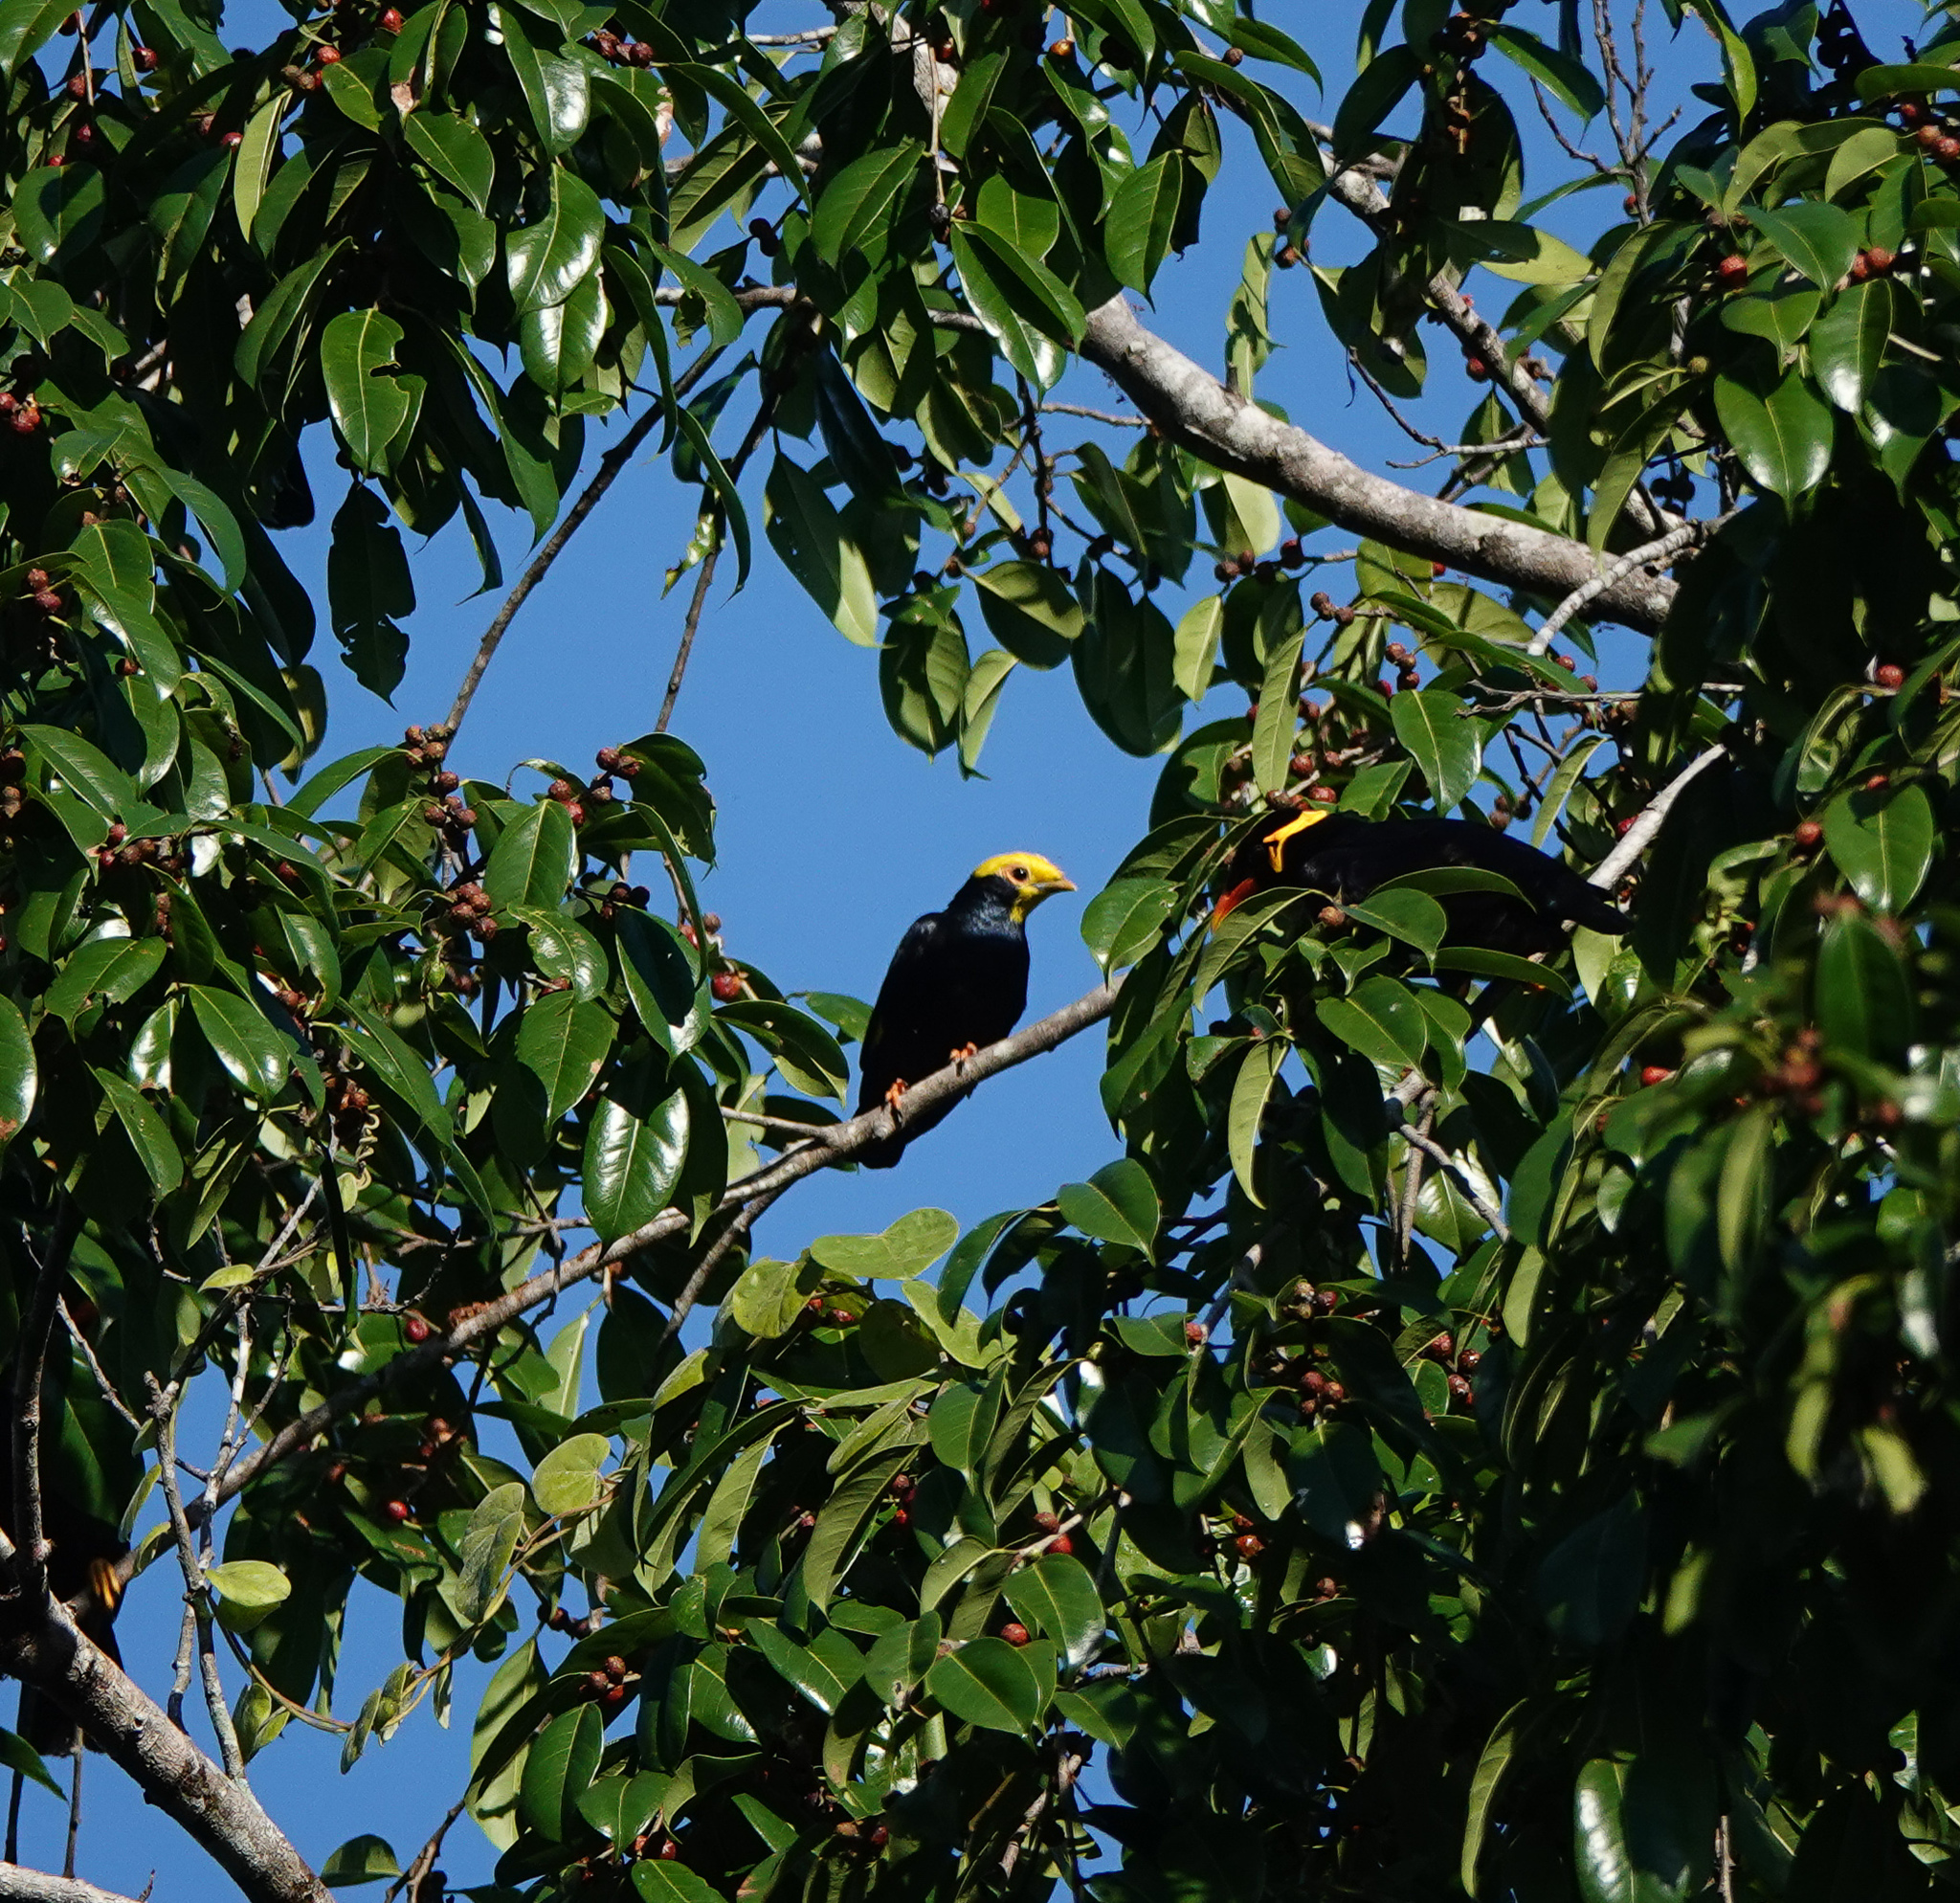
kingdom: Animalia
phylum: Chordata
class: Aves
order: Passeriformes
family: Sturnidae
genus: Ampeliceps
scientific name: Ampeliceps coronatus
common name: Golden-crested myna
